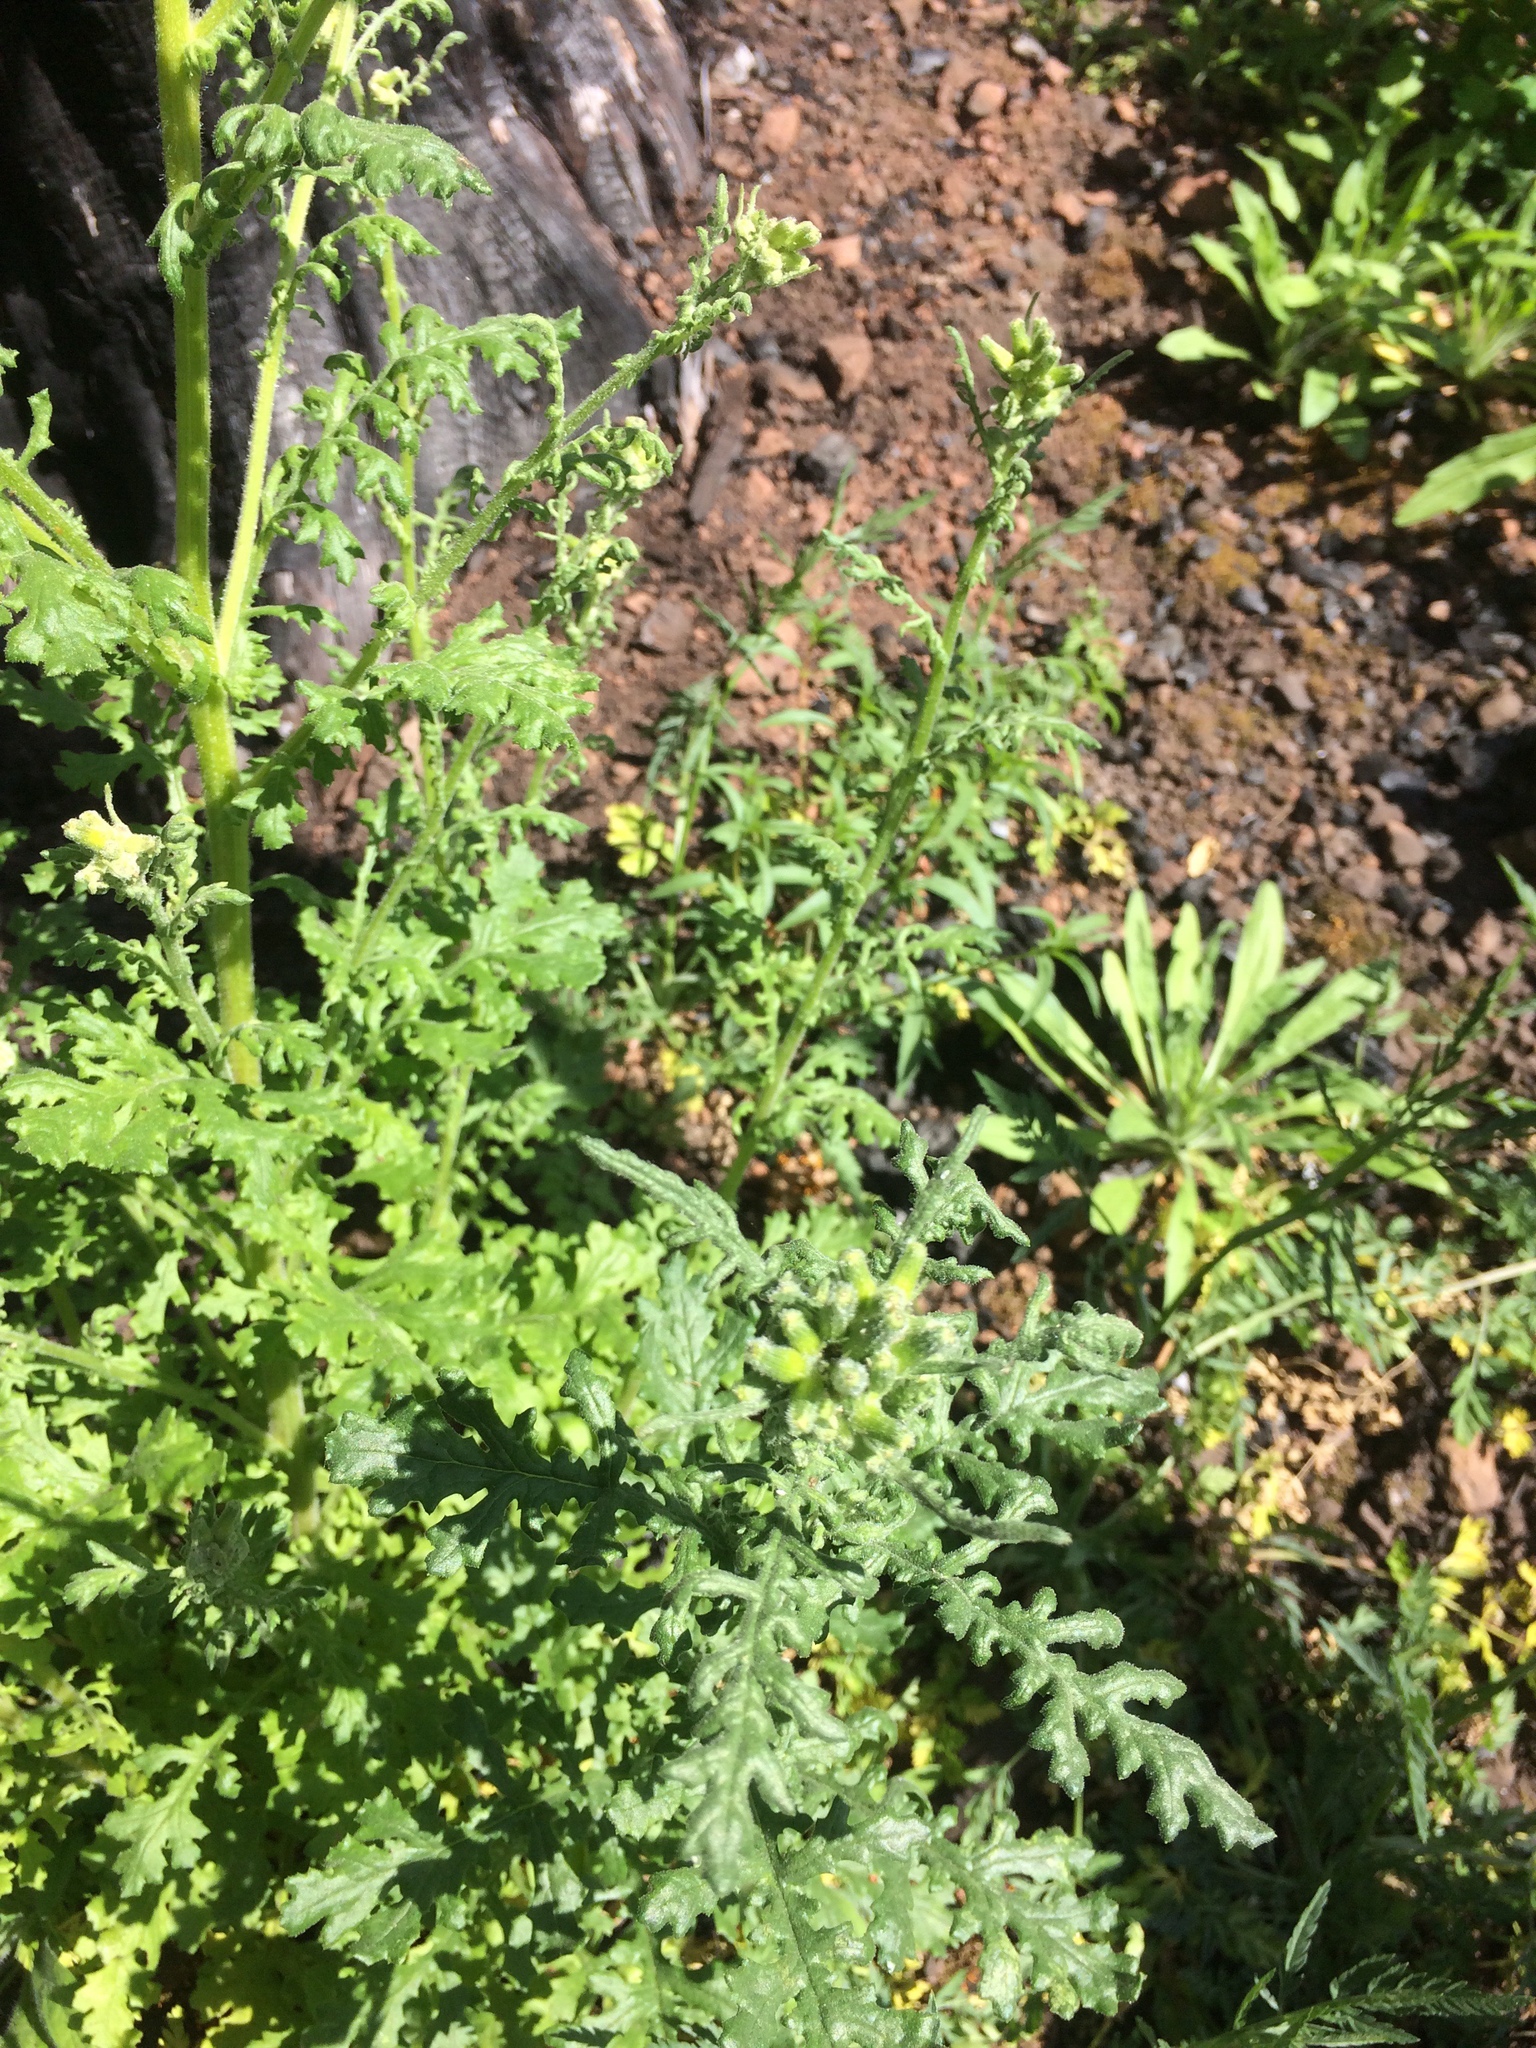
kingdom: Plantae
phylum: Tracheophyta
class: Magnoliopsida
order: Asterales
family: Asteraceae
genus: Senecio
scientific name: Senecio vulgaris
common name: Old-man-in-the-spring
